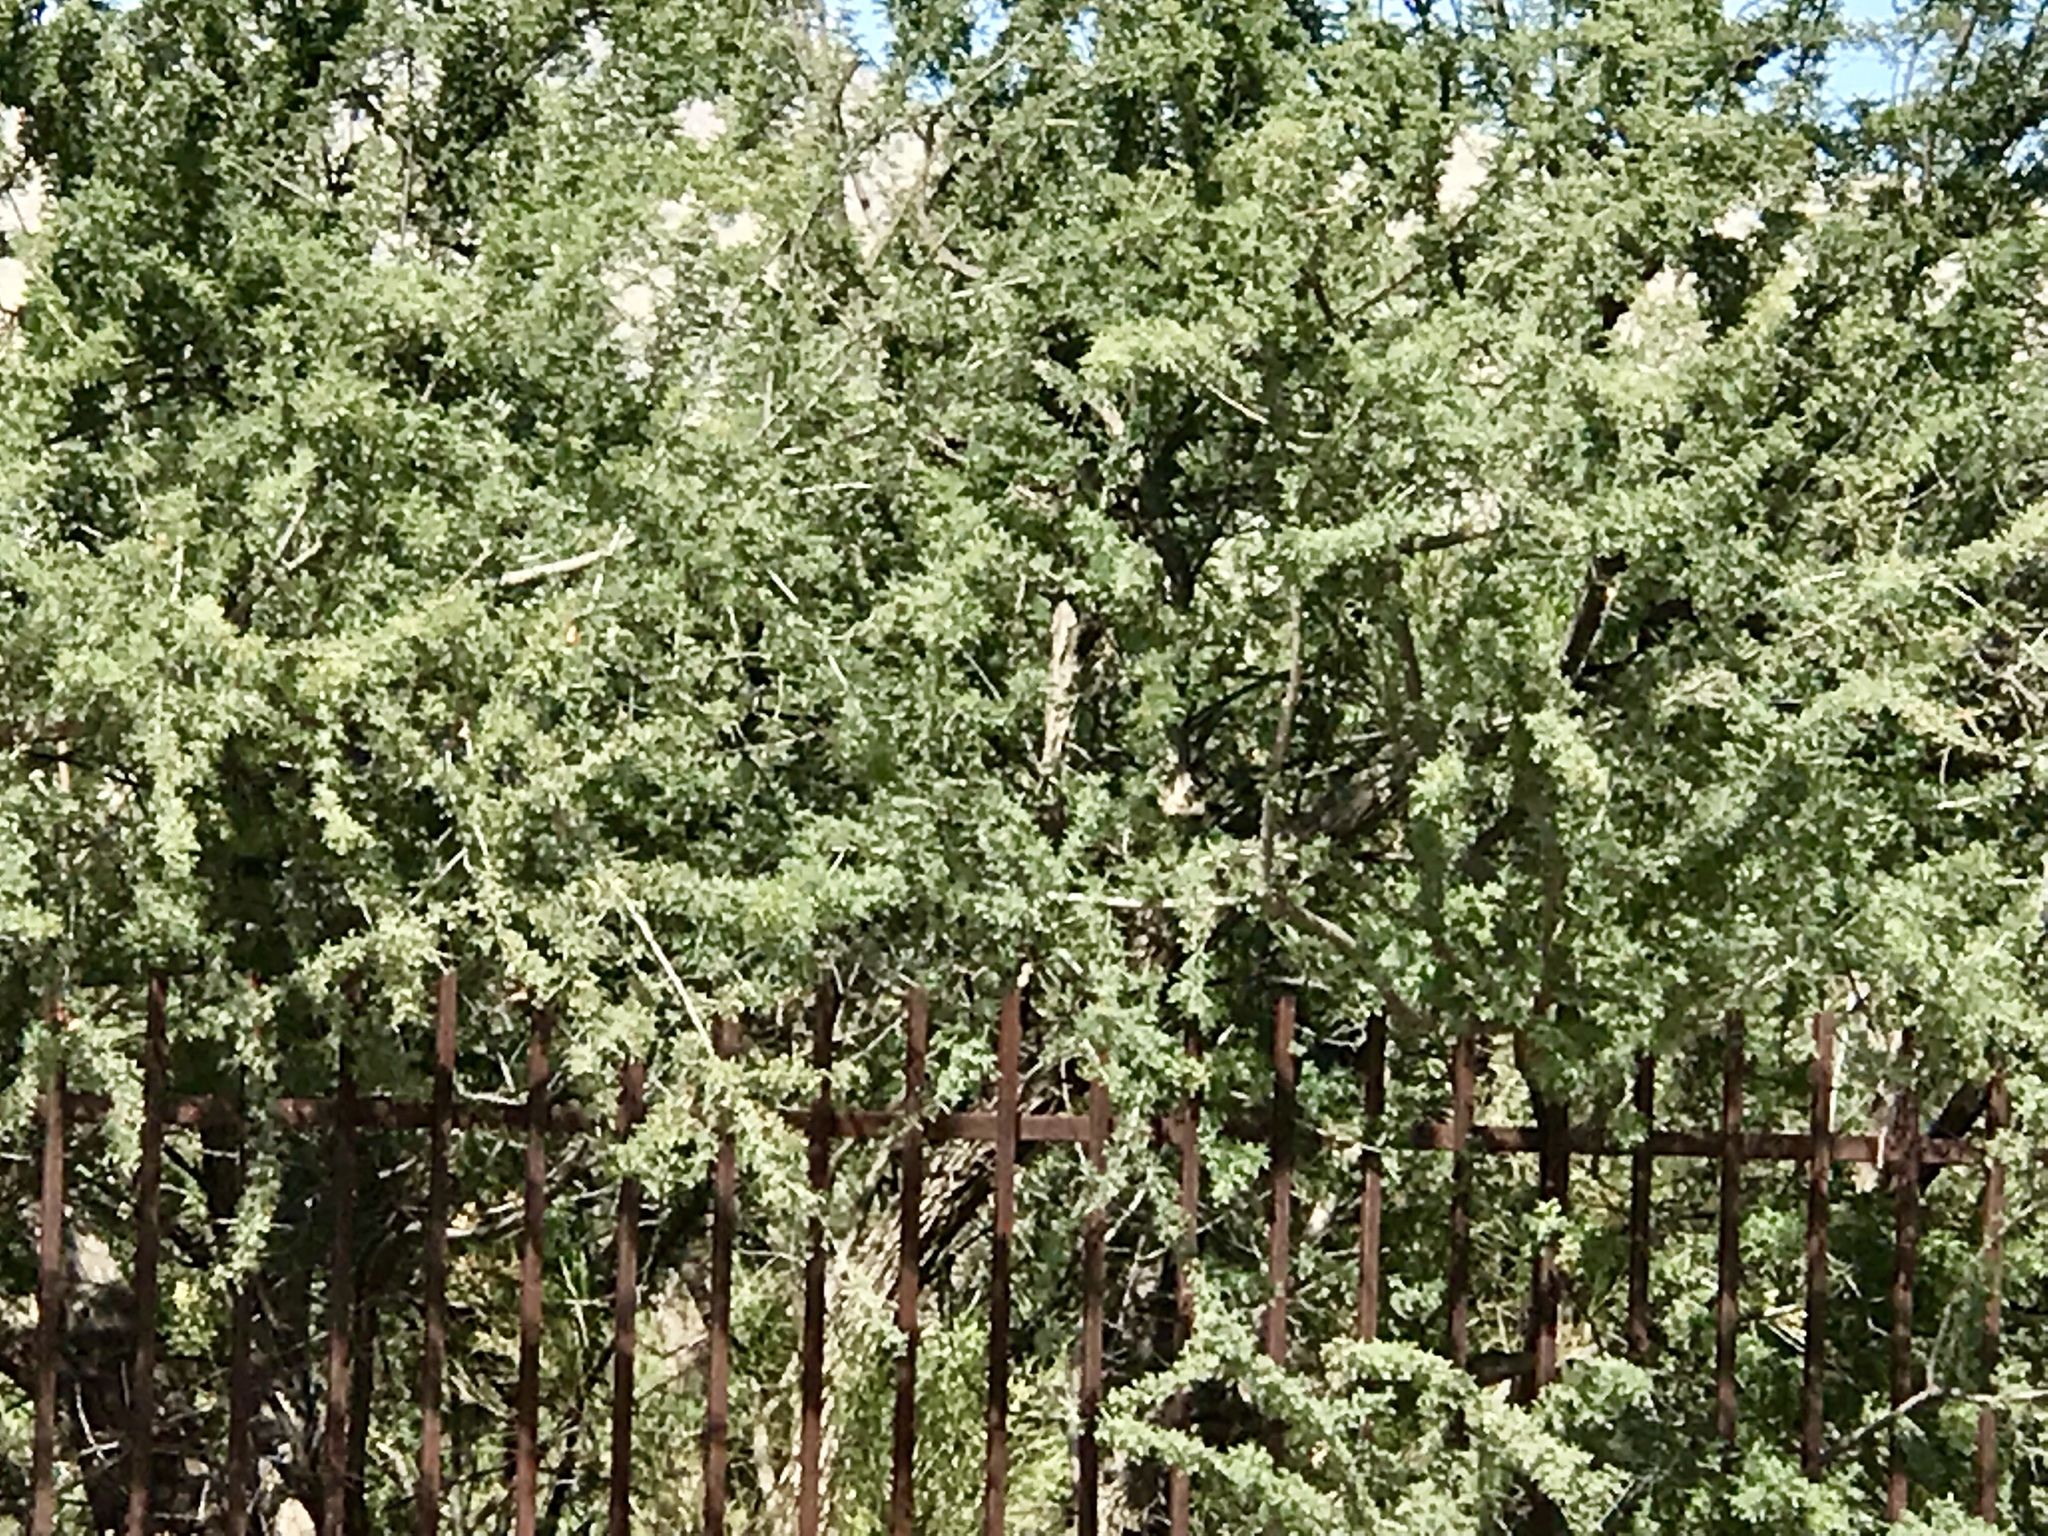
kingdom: Plantae
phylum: Tracheophyta
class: Magnoliopsida
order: Fabales
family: Fabaceae
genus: Olneya
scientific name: Olneya tesota
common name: Desert ironwood
